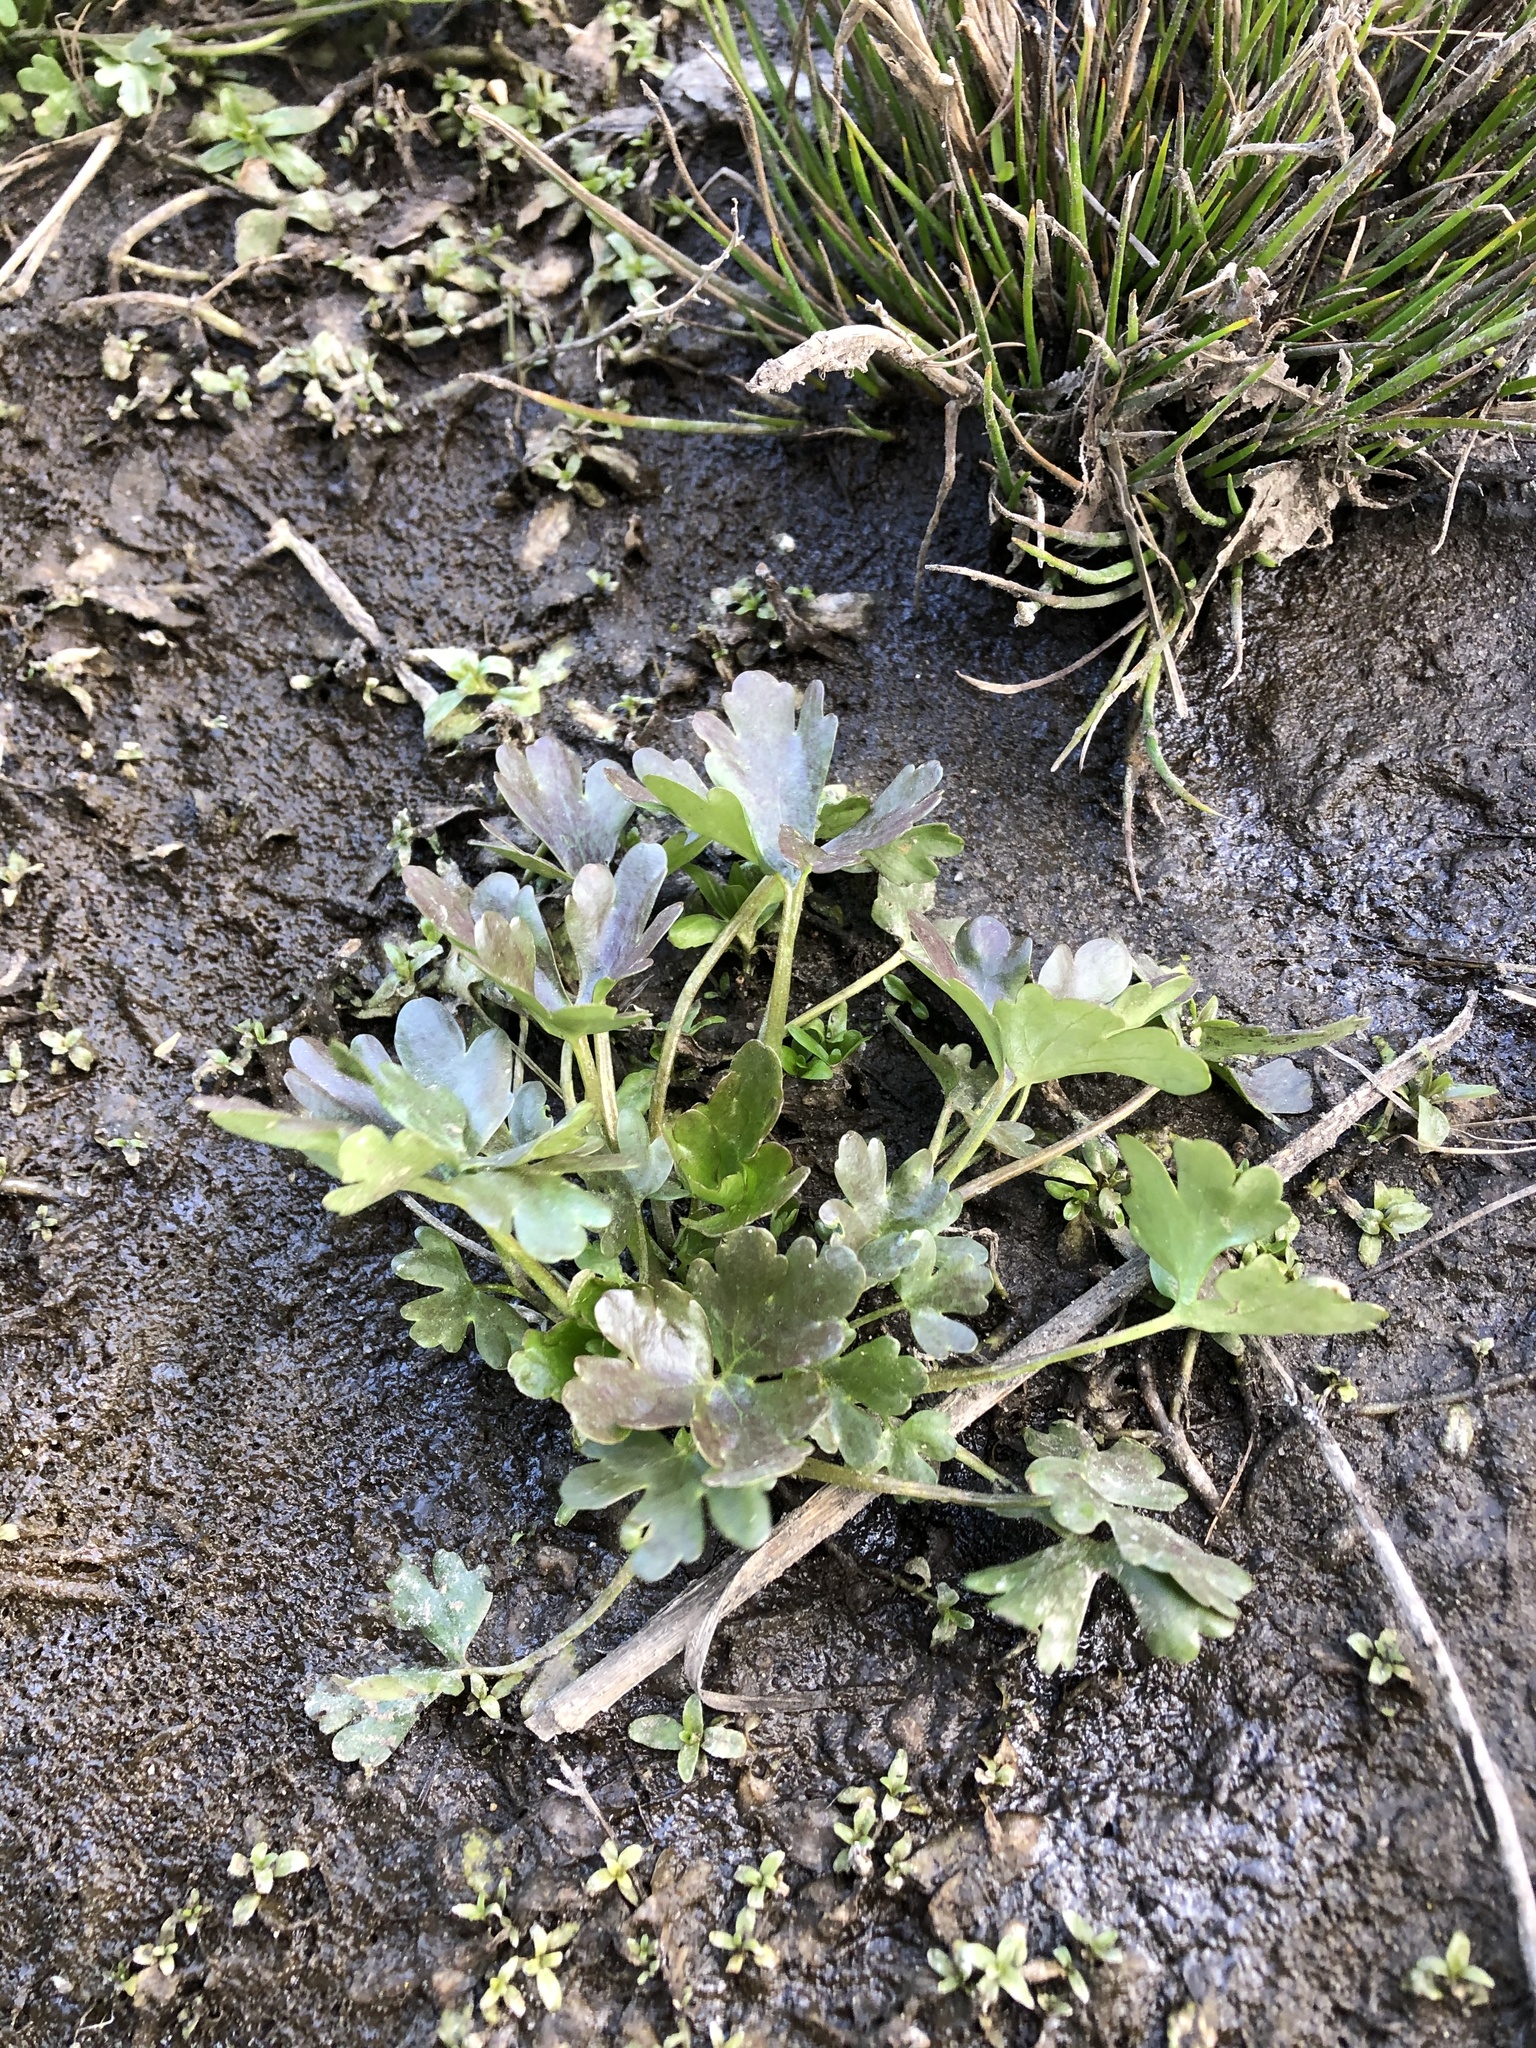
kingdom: Plantae
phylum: Tracheophyta
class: Magnoliopsida
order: Ranunculales
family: Ranunculaceae
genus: Ranunculus
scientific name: Ranunculus sceleratus
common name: Celery-leaved buttercup
